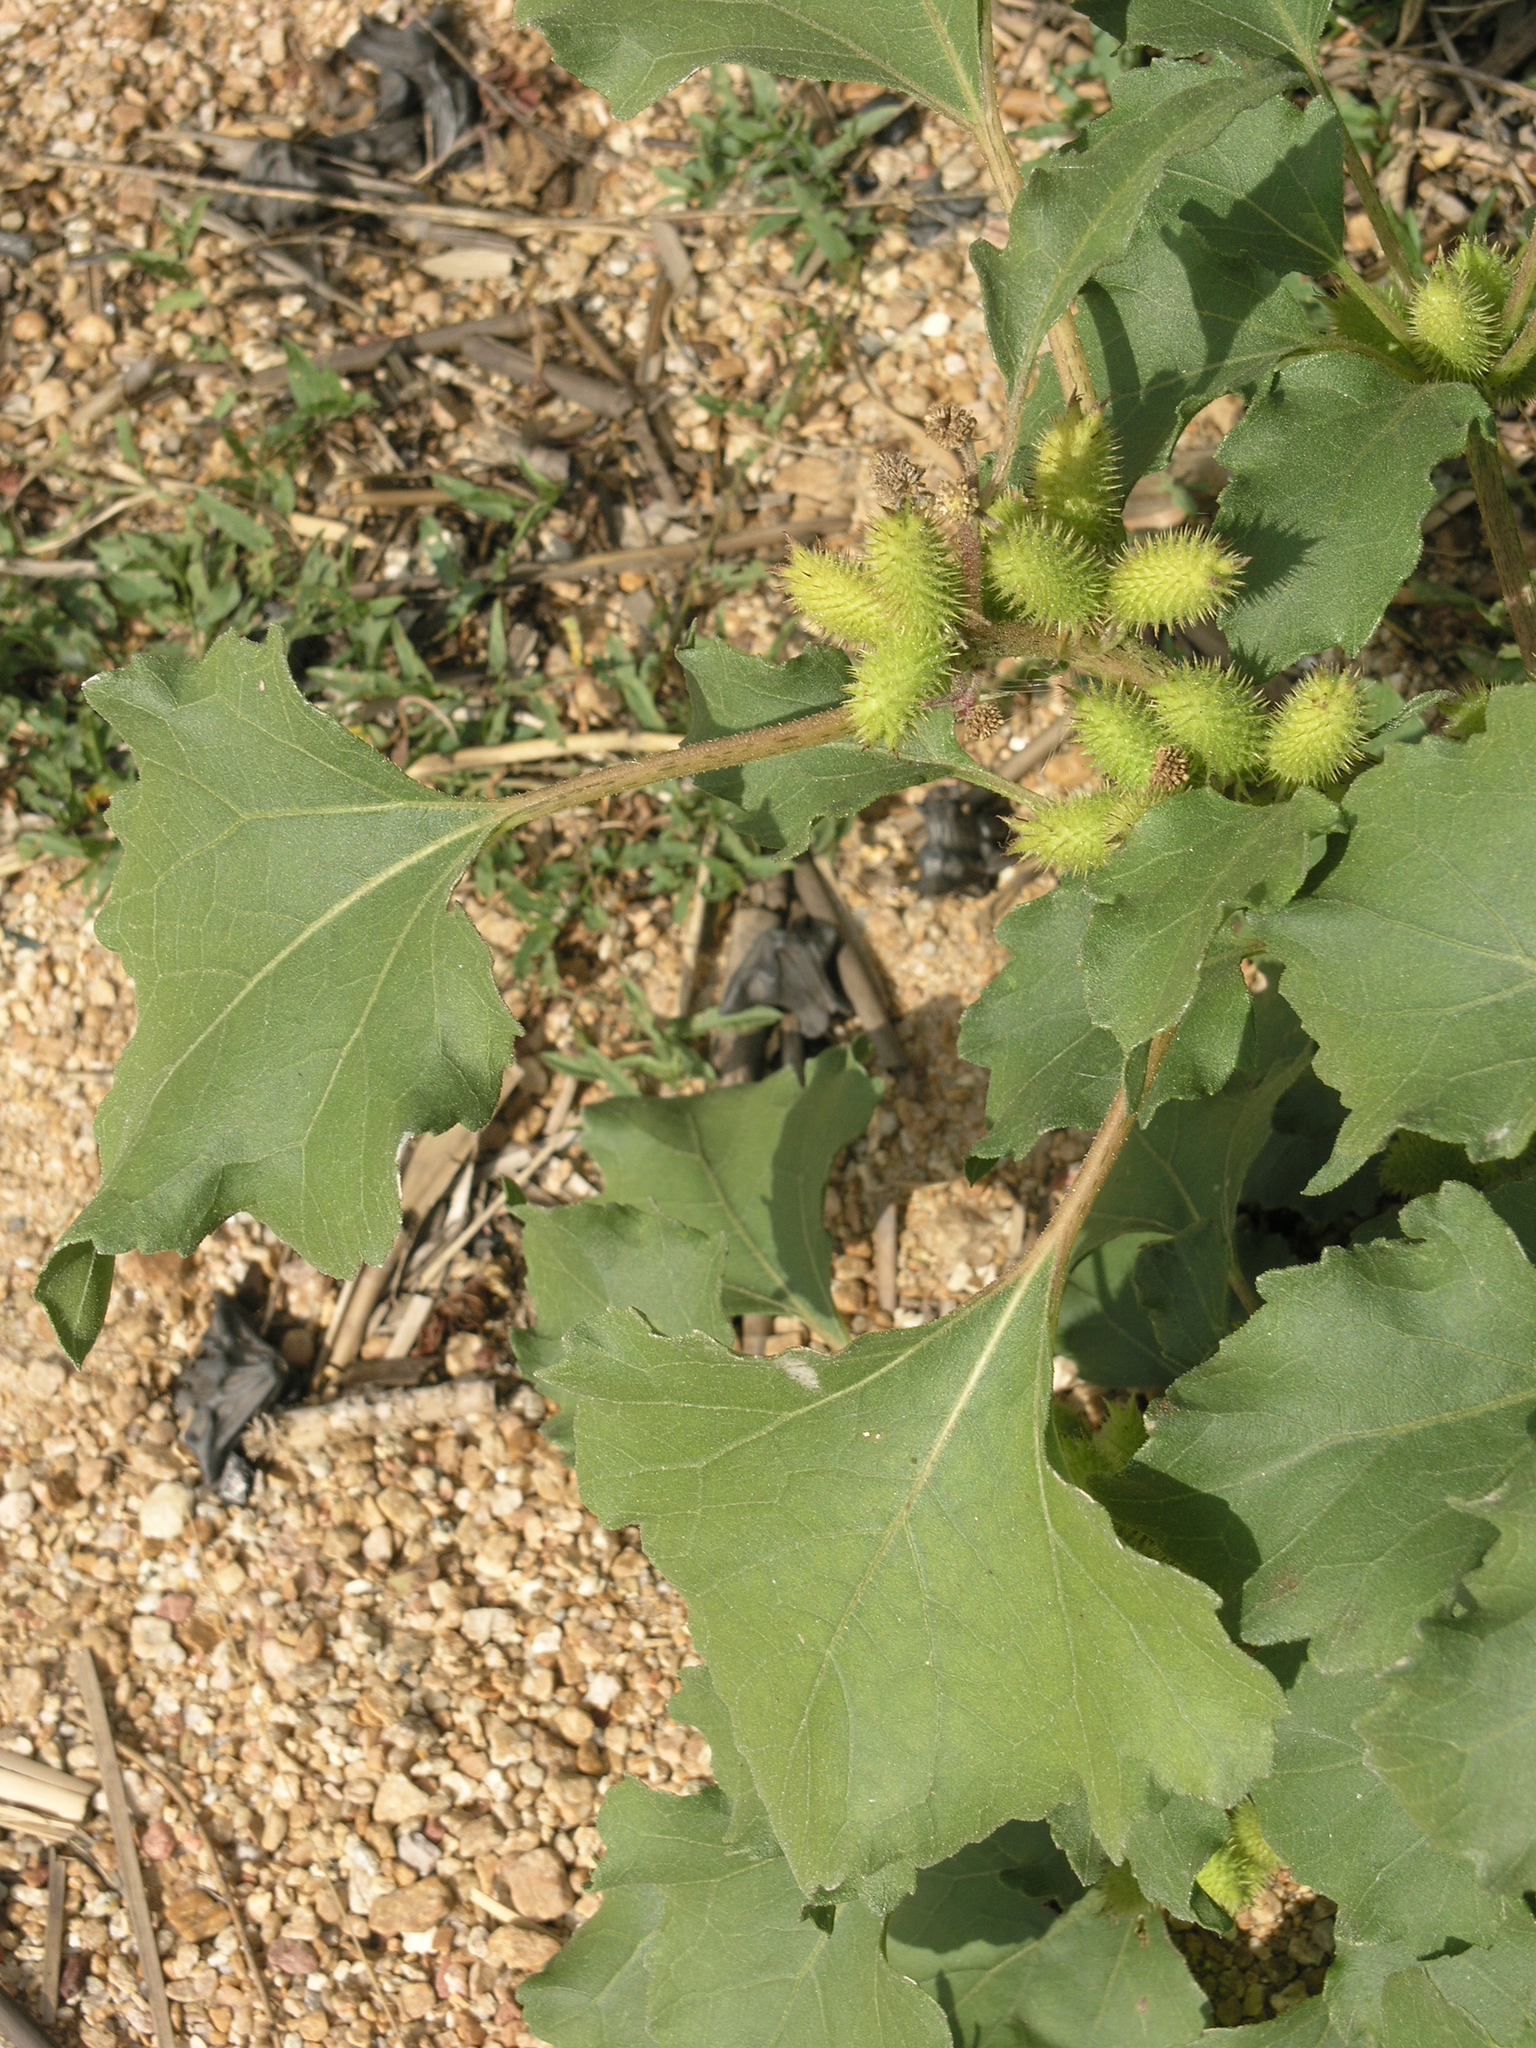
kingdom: Plantae
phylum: Tracheophyta
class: Magnoliopsida
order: Asterales
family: Asteraceae
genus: Xanthium
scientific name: Xanthium orientale
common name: Californian burr
